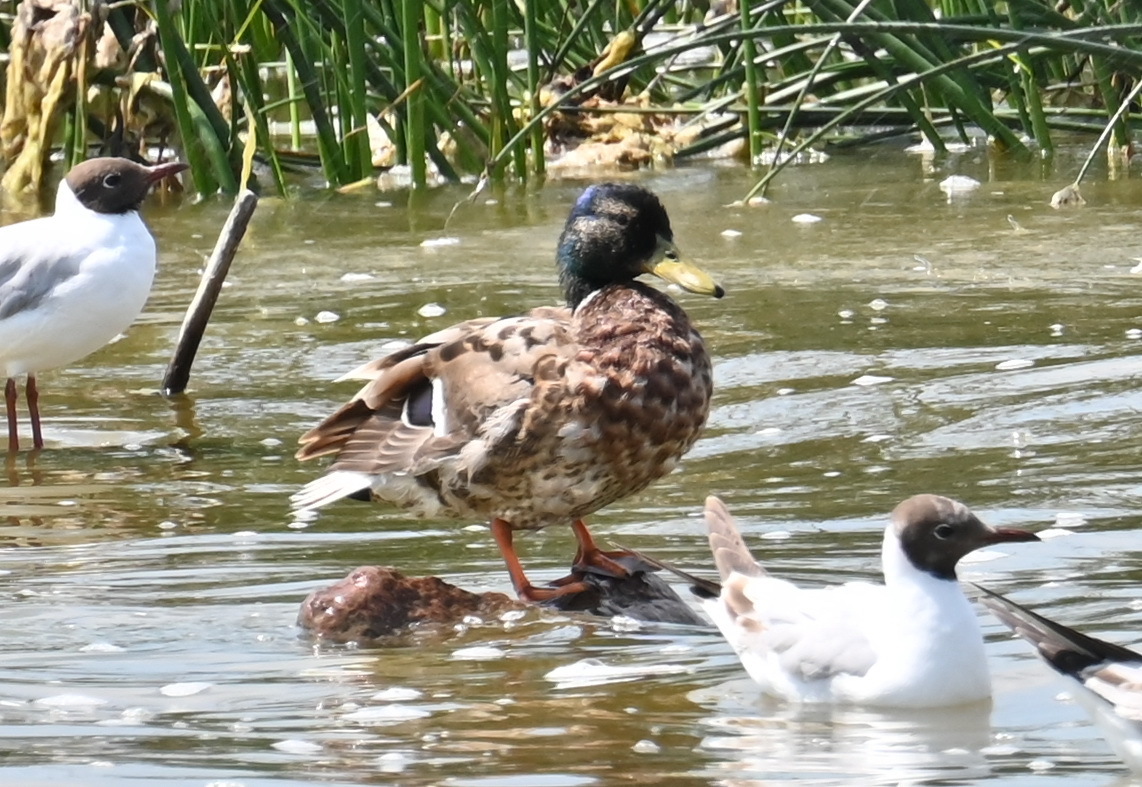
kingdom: Animalia
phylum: Chordata
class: Aves
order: Anseriformes
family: Anatidae
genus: Anas
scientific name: Anas platyrhynchos
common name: Mallard
